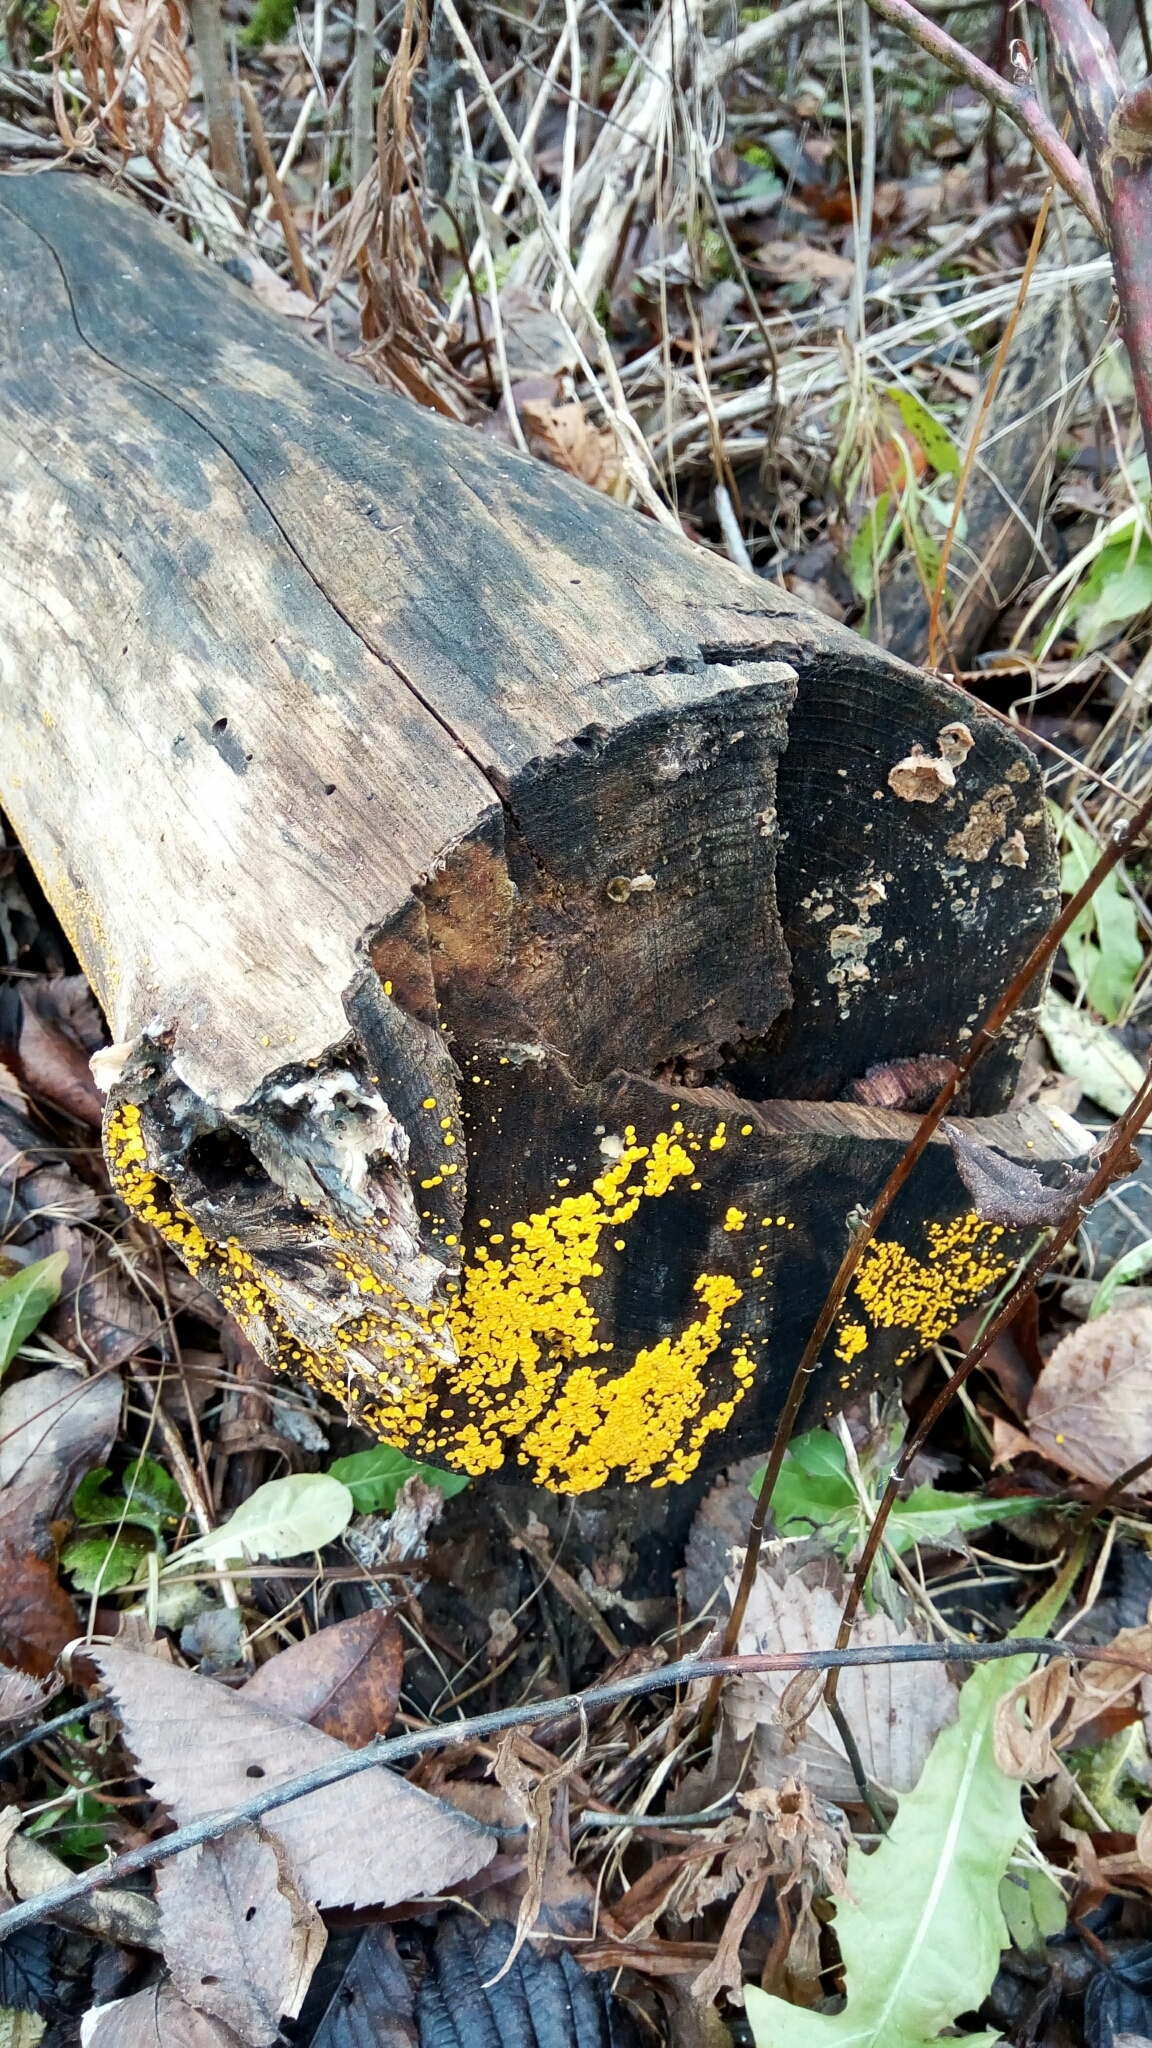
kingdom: Fungi
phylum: Ascomycota
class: Leotiomycetes
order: Helotiales
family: Pezizellaceae
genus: Calycina
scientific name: Calycina citrina
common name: Yellow fairy cups
